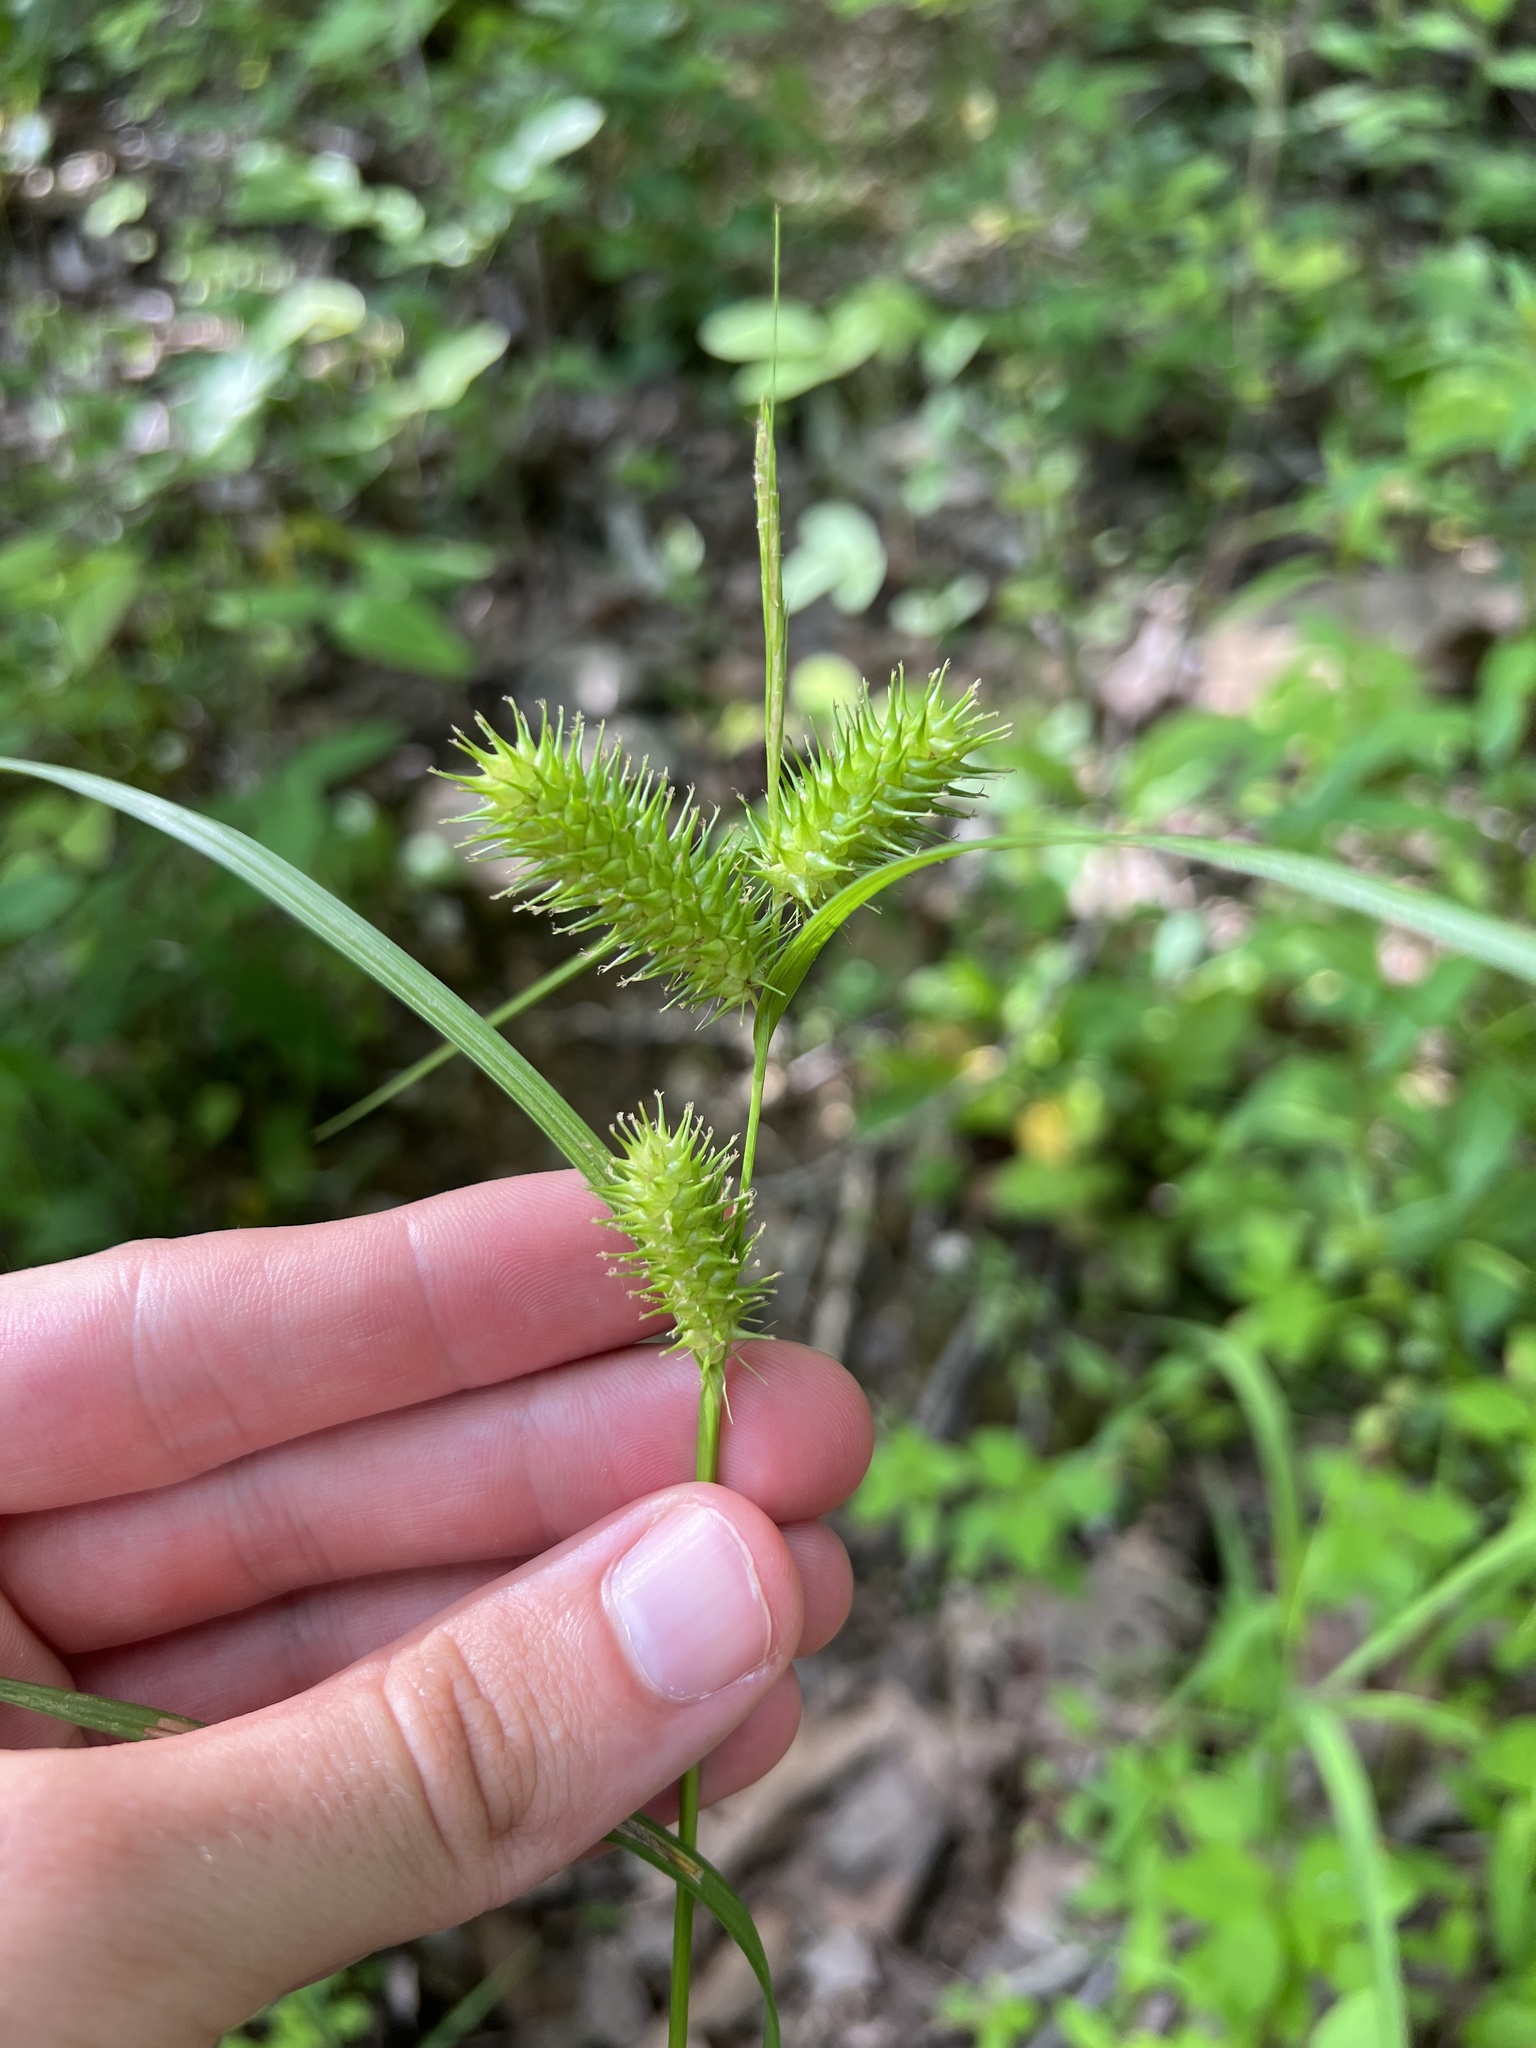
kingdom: Plantae
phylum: Tracheophyta
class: Liliopsida
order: Poales
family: Cyperaceae
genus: Carex
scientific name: Carex lurida
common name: Sallow sedge
